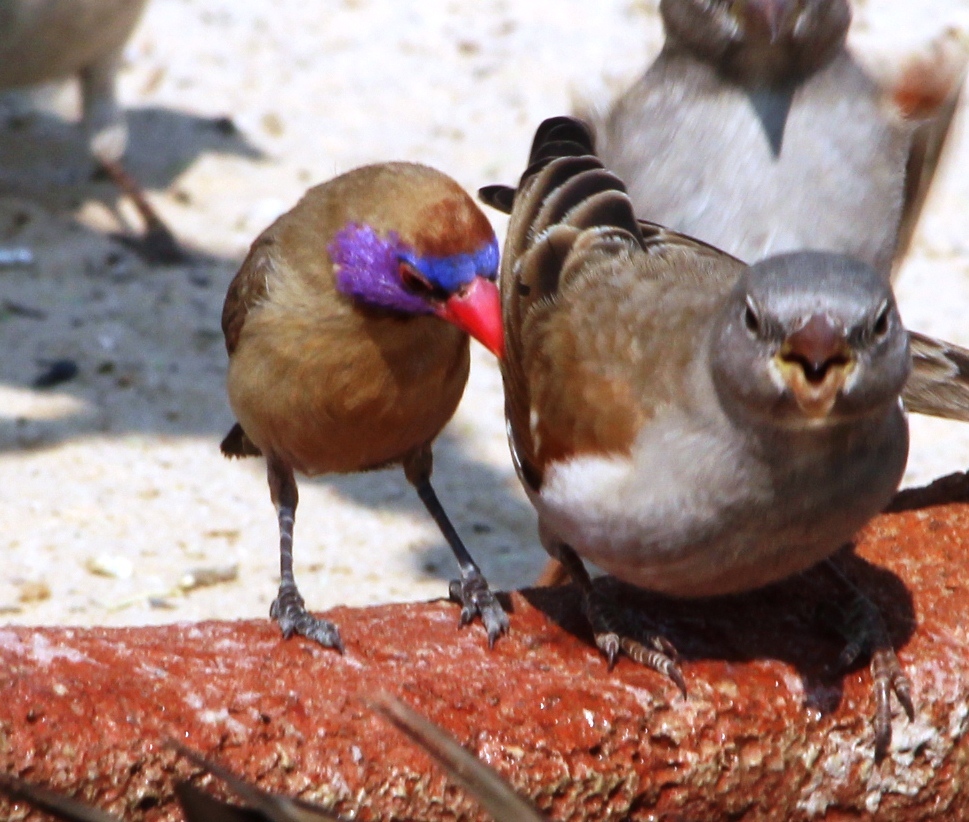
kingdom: Animalia
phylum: Chordata
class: Aves
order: Passeriformes
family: Estrildidae
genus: Uraeginthus
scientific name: Uraeginthus granatinus
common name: Violet-eared waxbill
